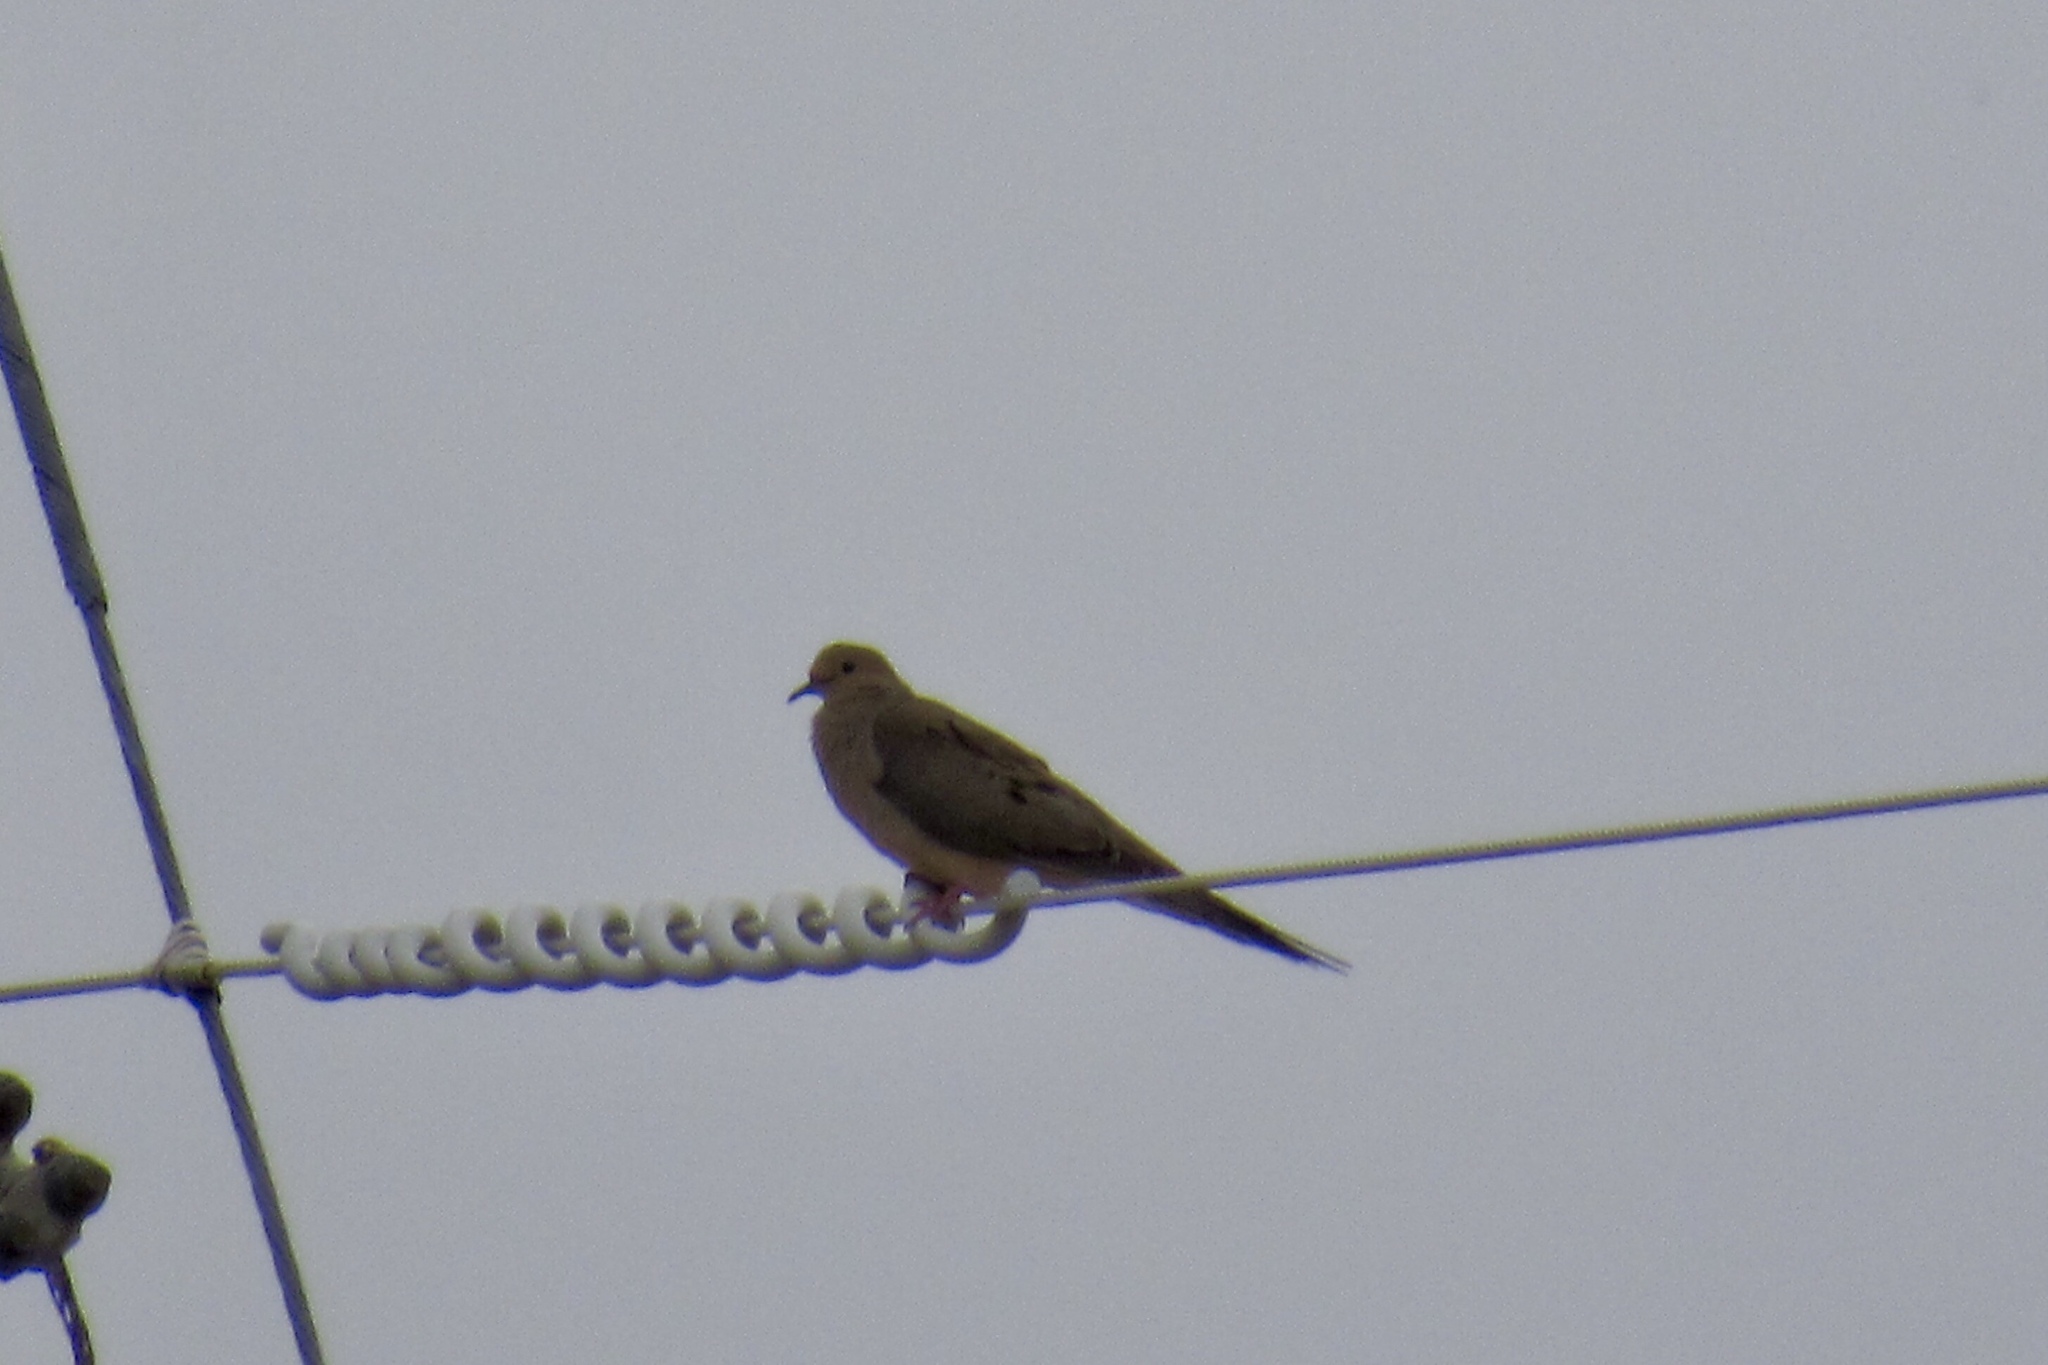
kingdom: Animalia
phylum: Chordata
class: Aves
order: Columbiformes
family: Columbidae
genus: Zenaida
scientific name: Zenaida macroura
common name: Mourning dove
